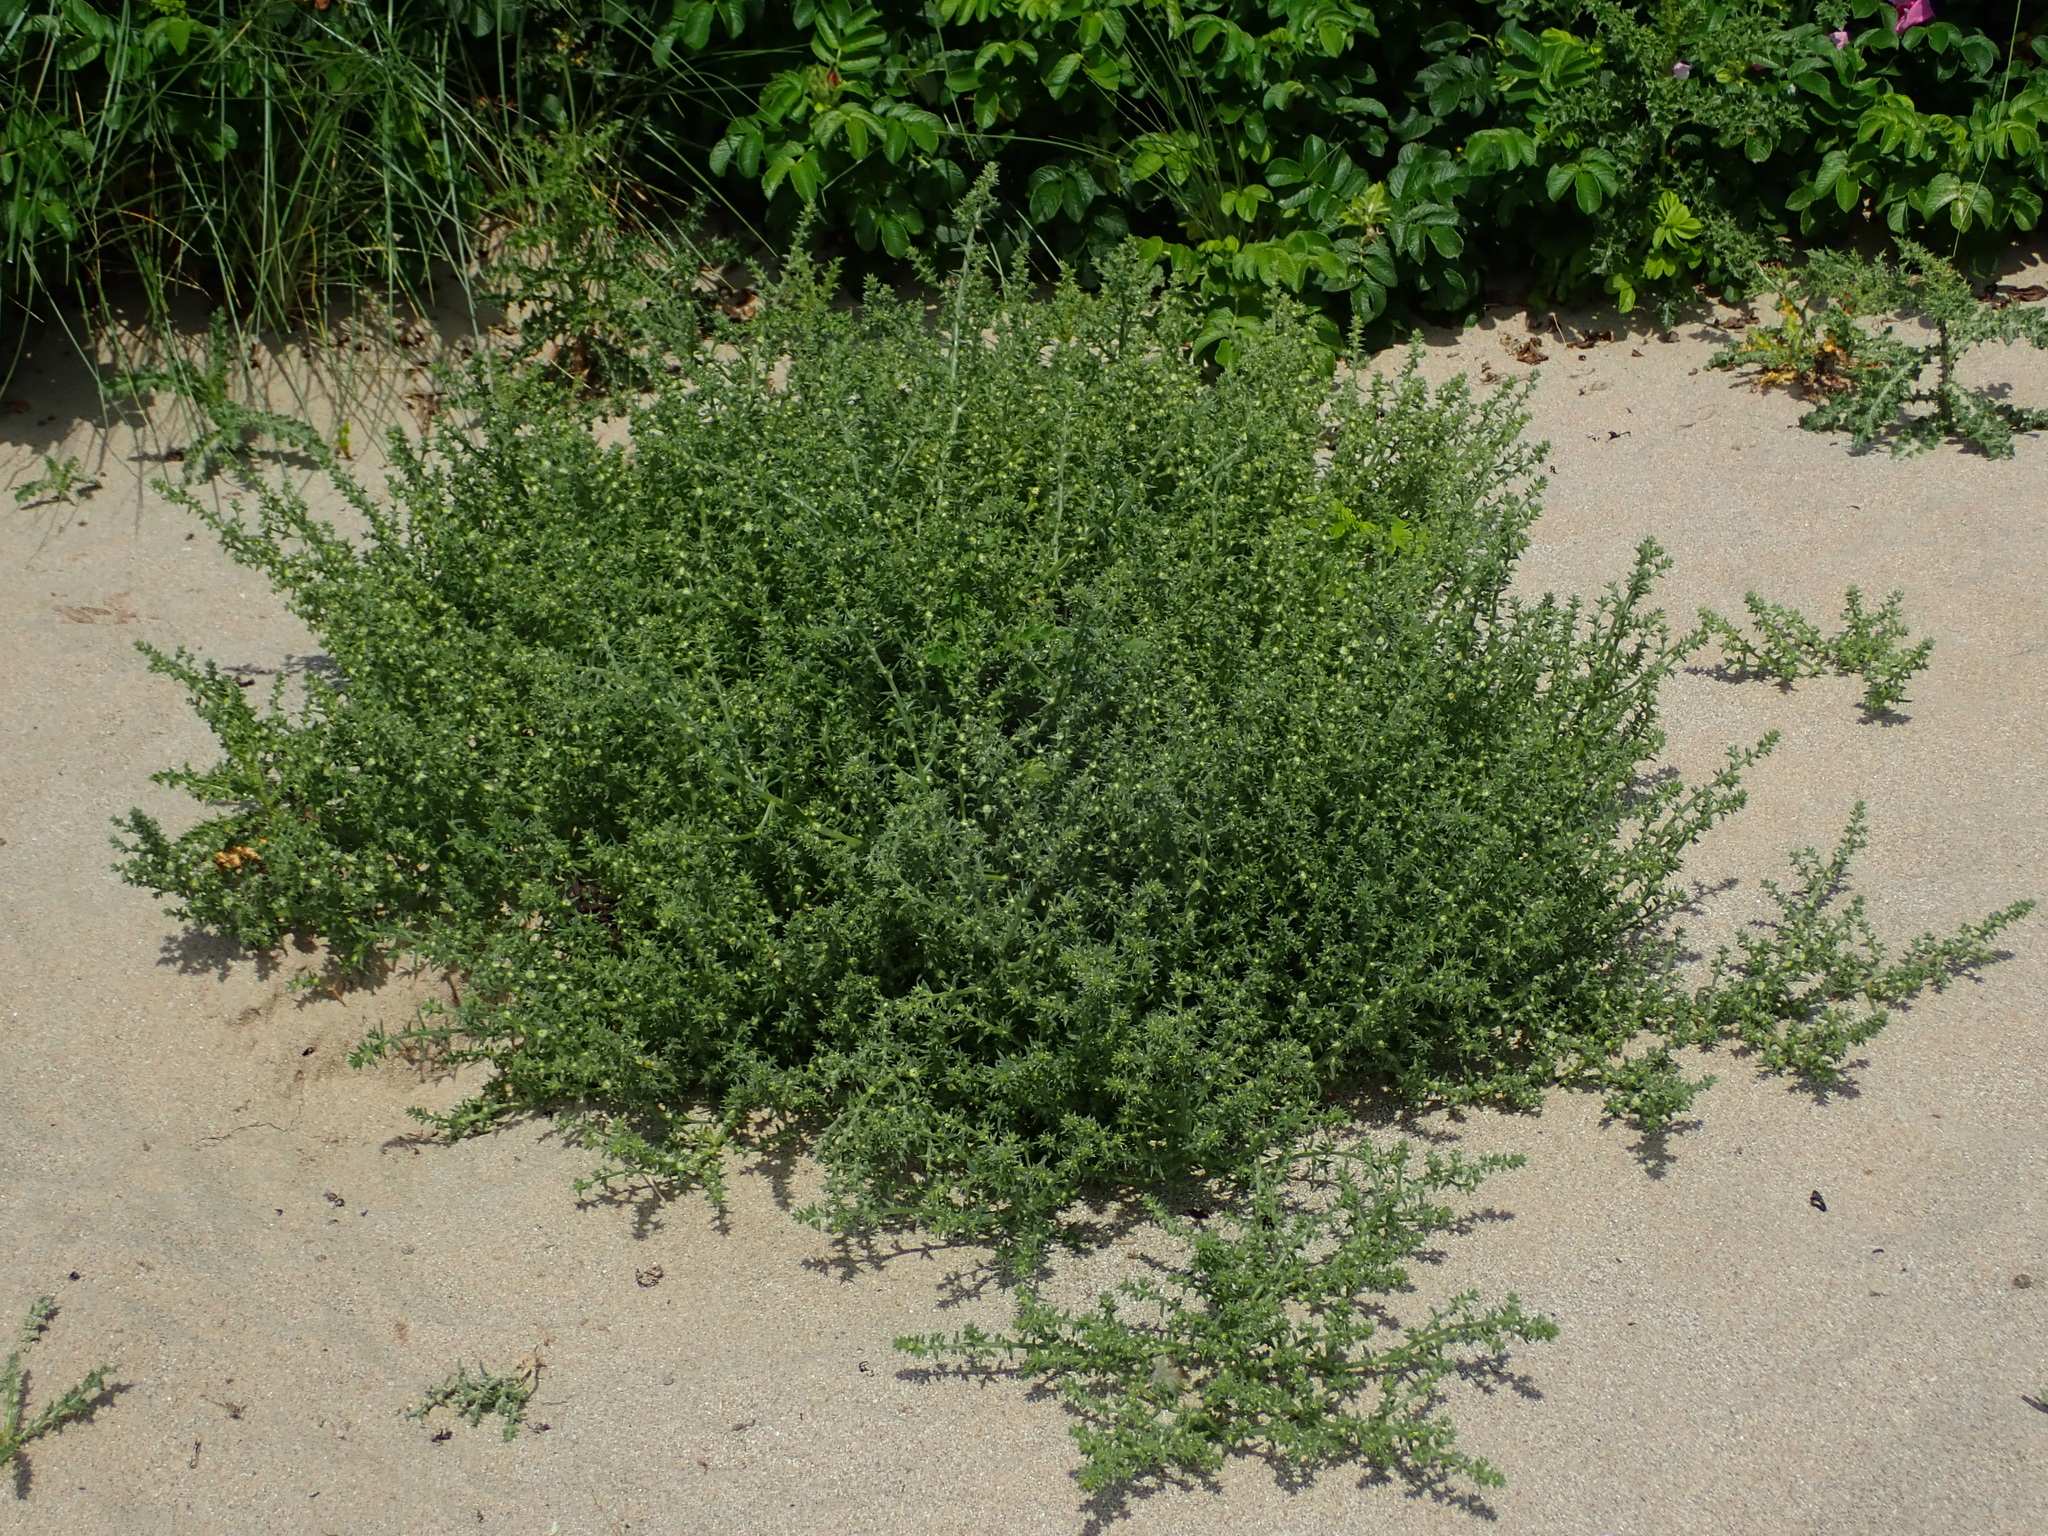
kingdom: Plantae
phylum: Tracheophyta
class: Magnoliopsida
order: Caryophyllales
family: Amaranthaceae
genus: Salsola
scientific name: Salsola kali
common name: Saltwort
